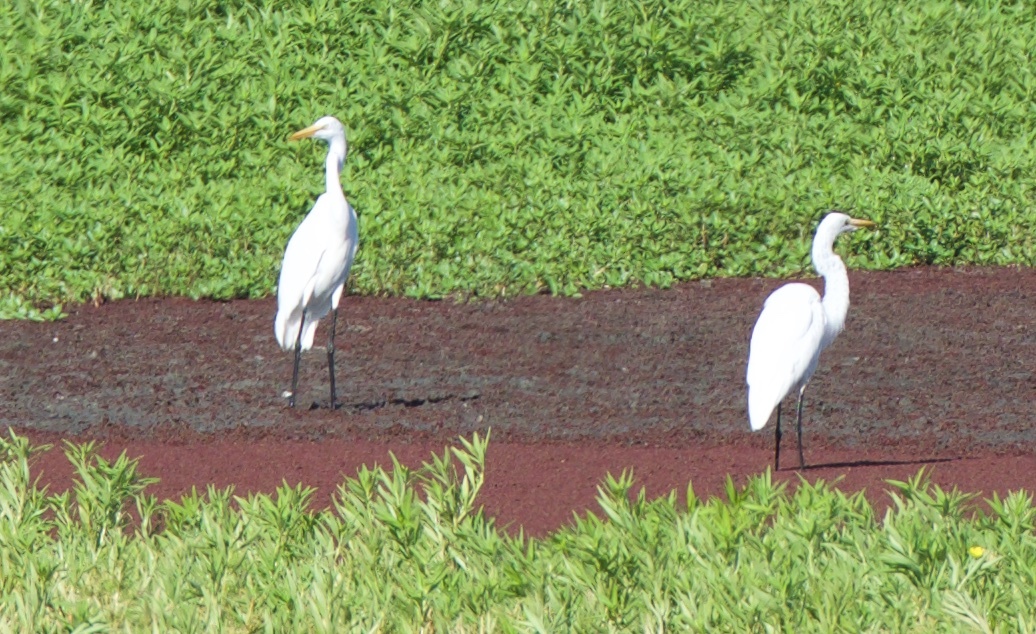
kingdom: Animalia
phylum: Chordata
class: Aves
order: Pelecaniformes
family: Ardeidae
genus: Ardea
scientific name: Ardea alba
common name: Great egret
